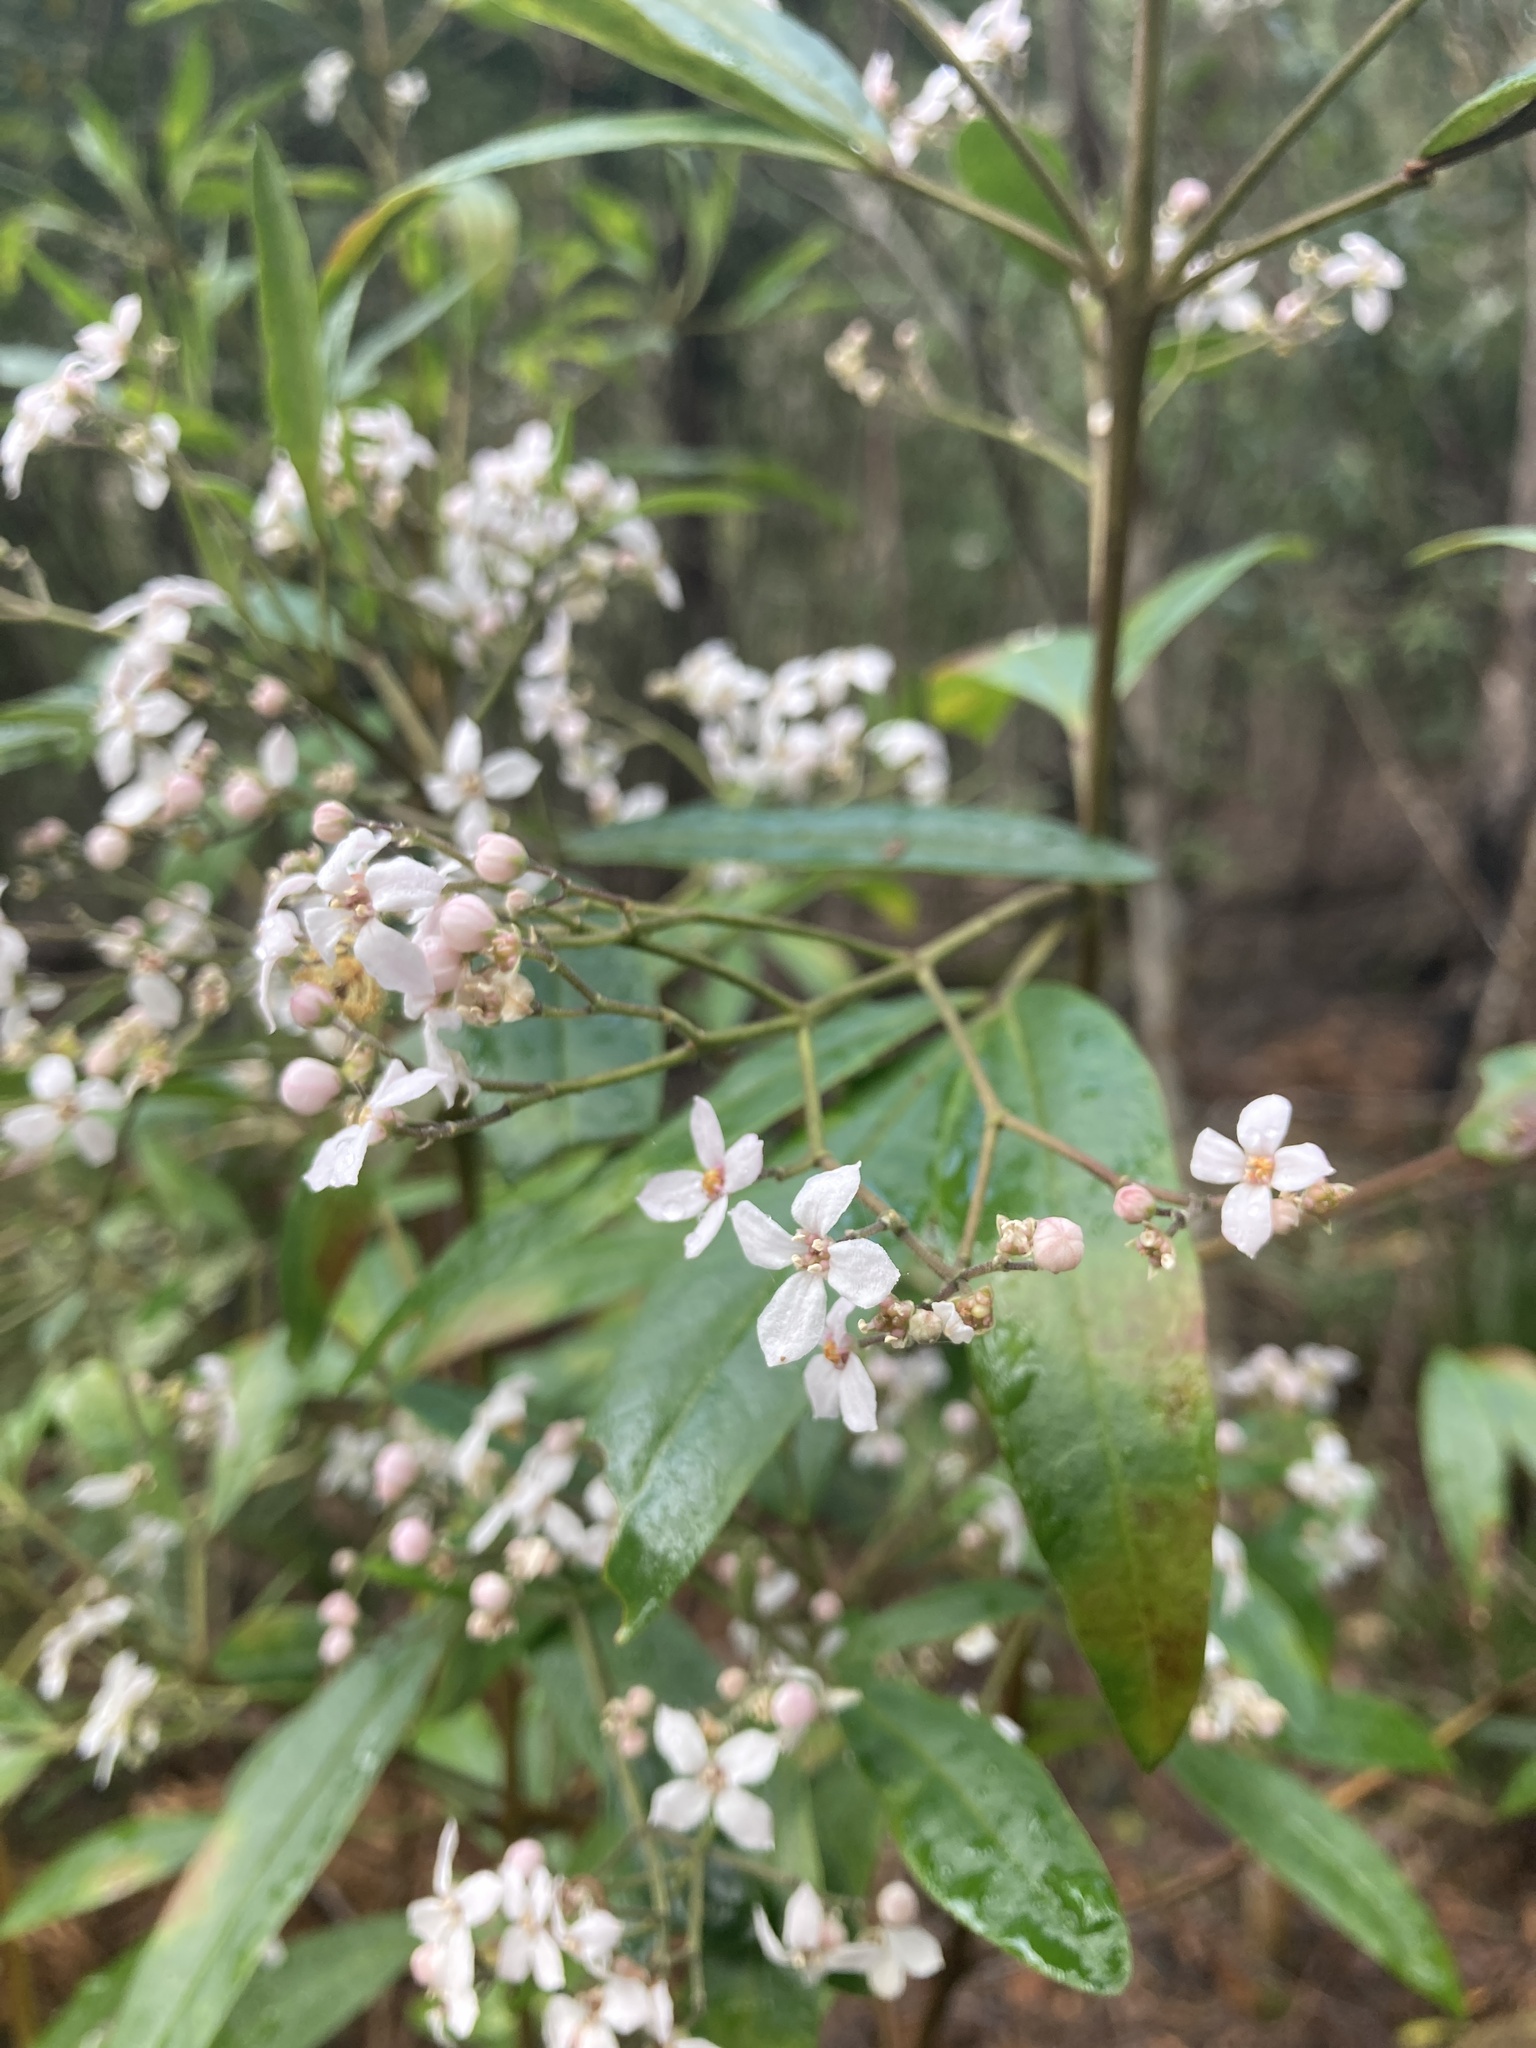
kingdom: Plantae
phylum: Tracheophyta
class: Magnoliopsida
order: Sapindales
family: Rutaceae
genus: Zieria
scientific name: Zieria arborescens
